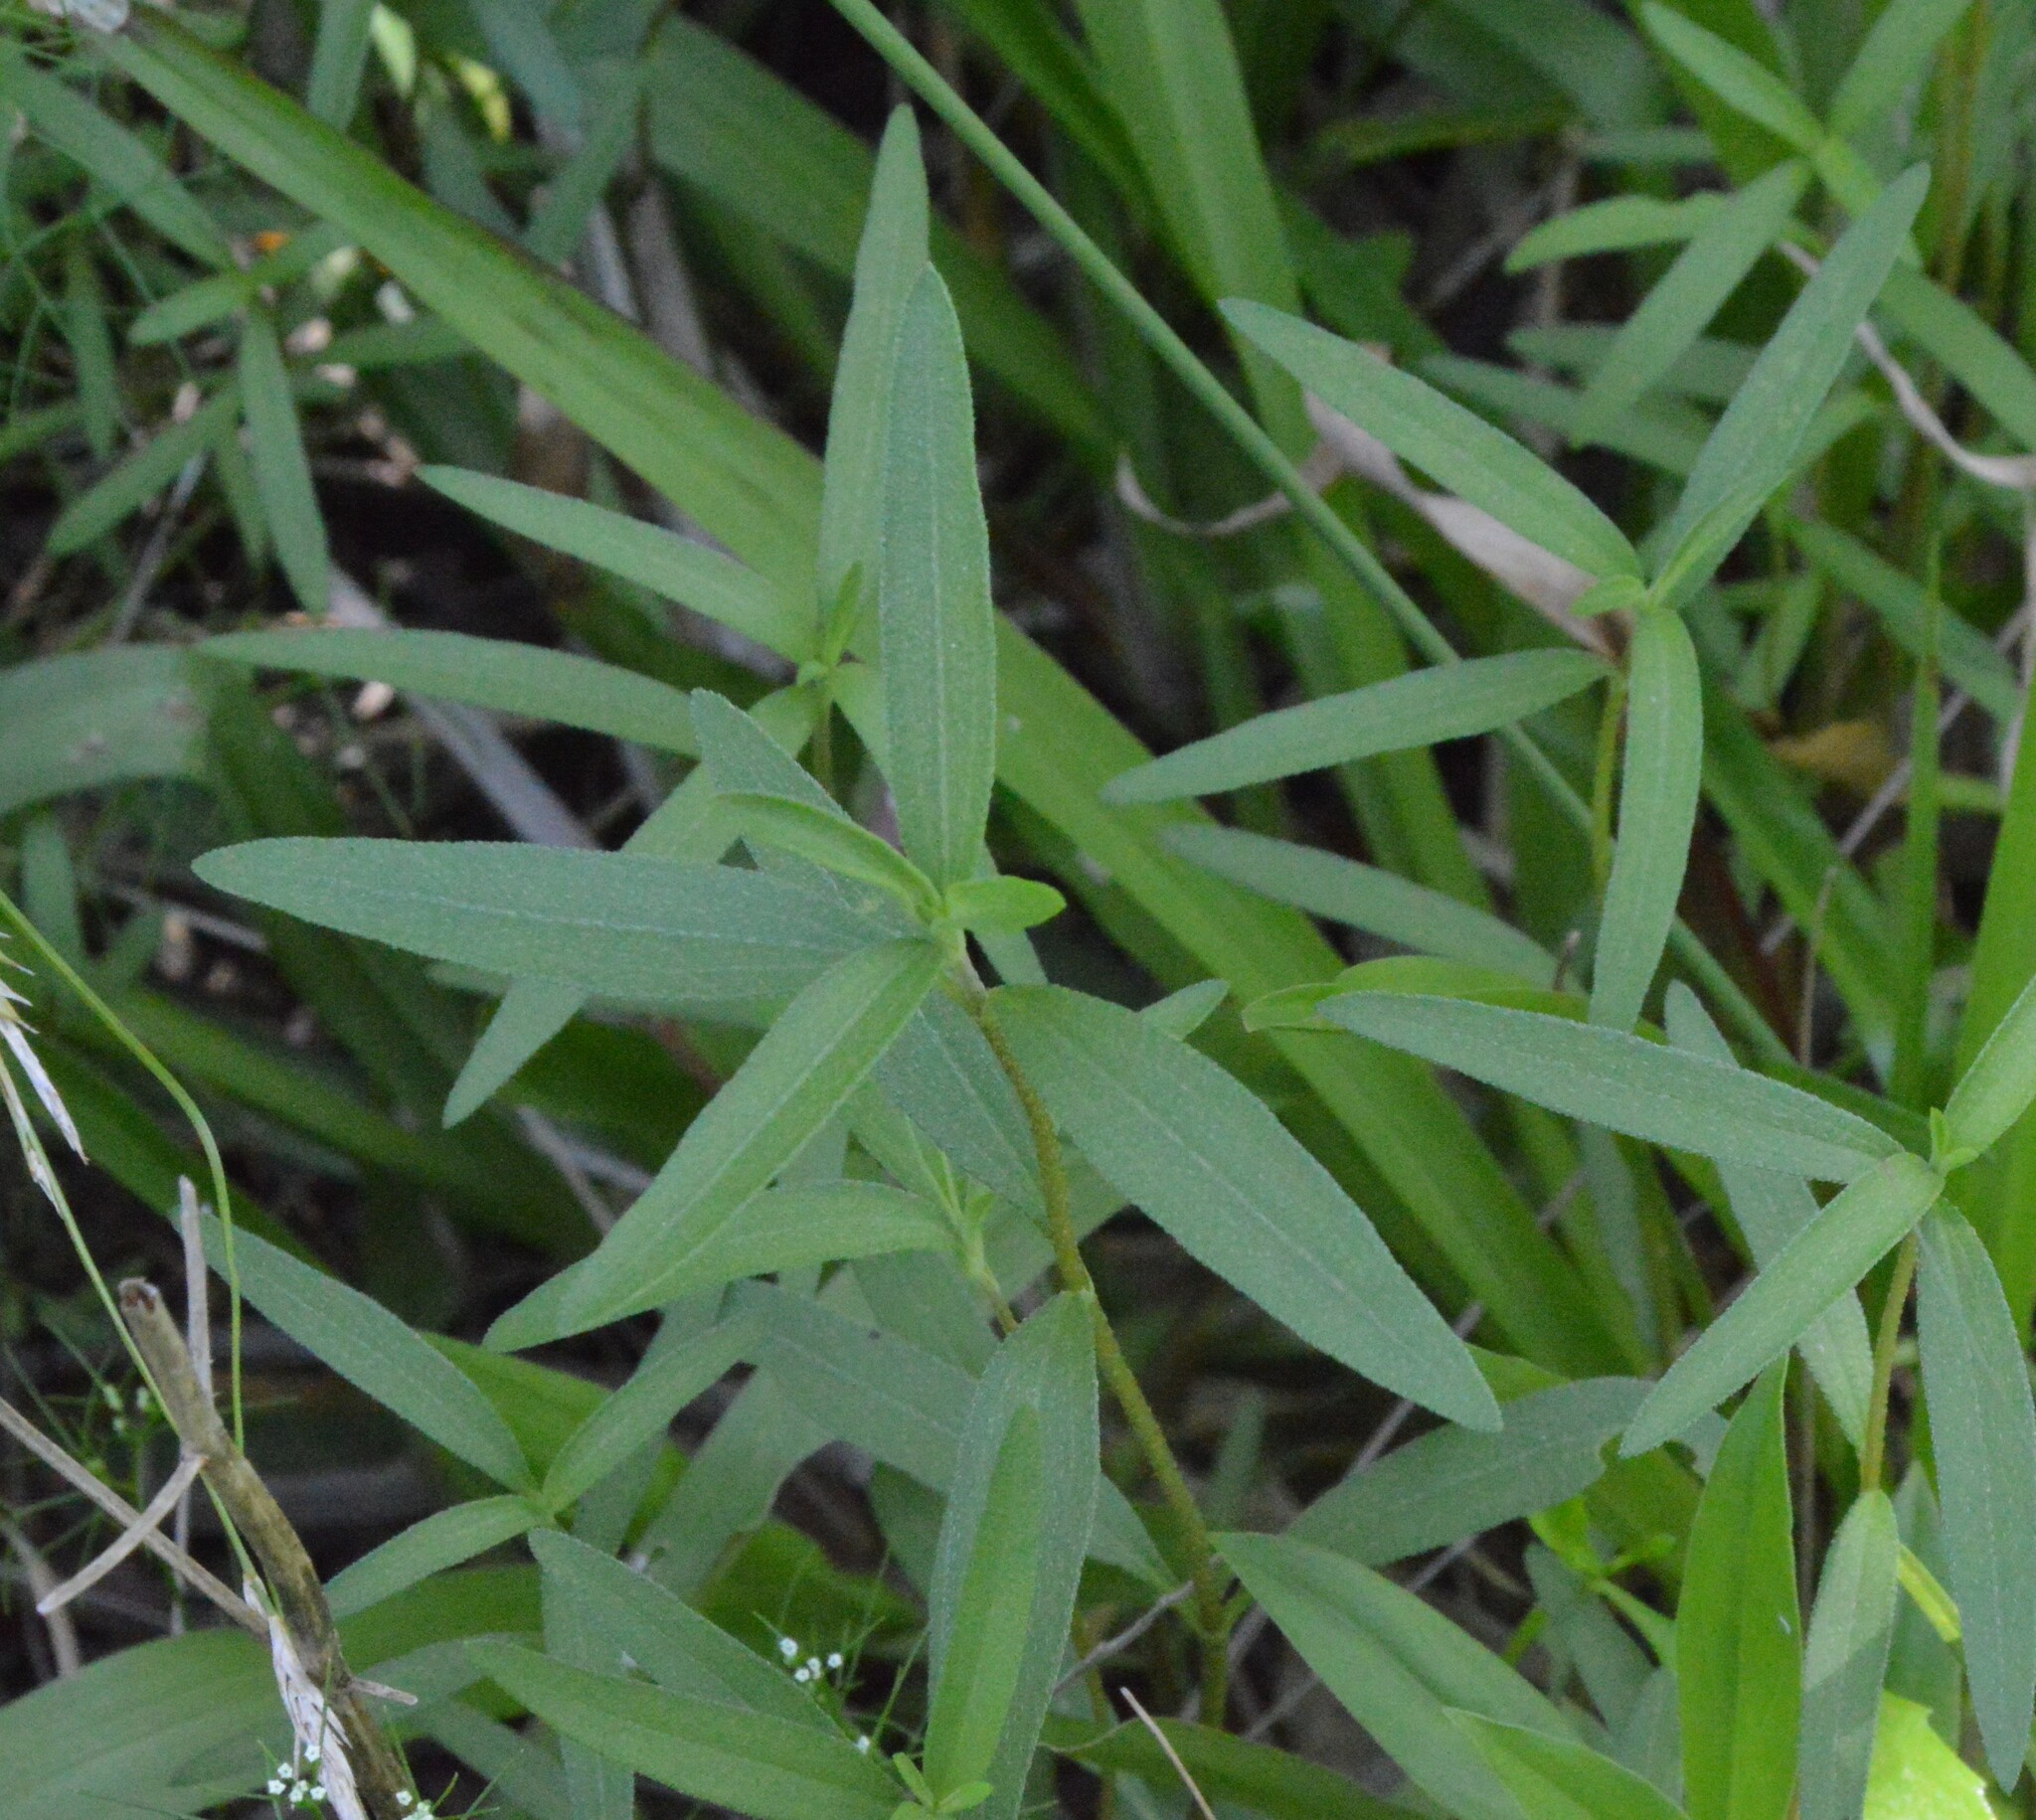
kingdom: Plantae
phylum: Tracheophyta
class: Magnoliopsida
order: Asterales
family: Asteraceae
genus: Iva
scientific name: Iva asperifolia
